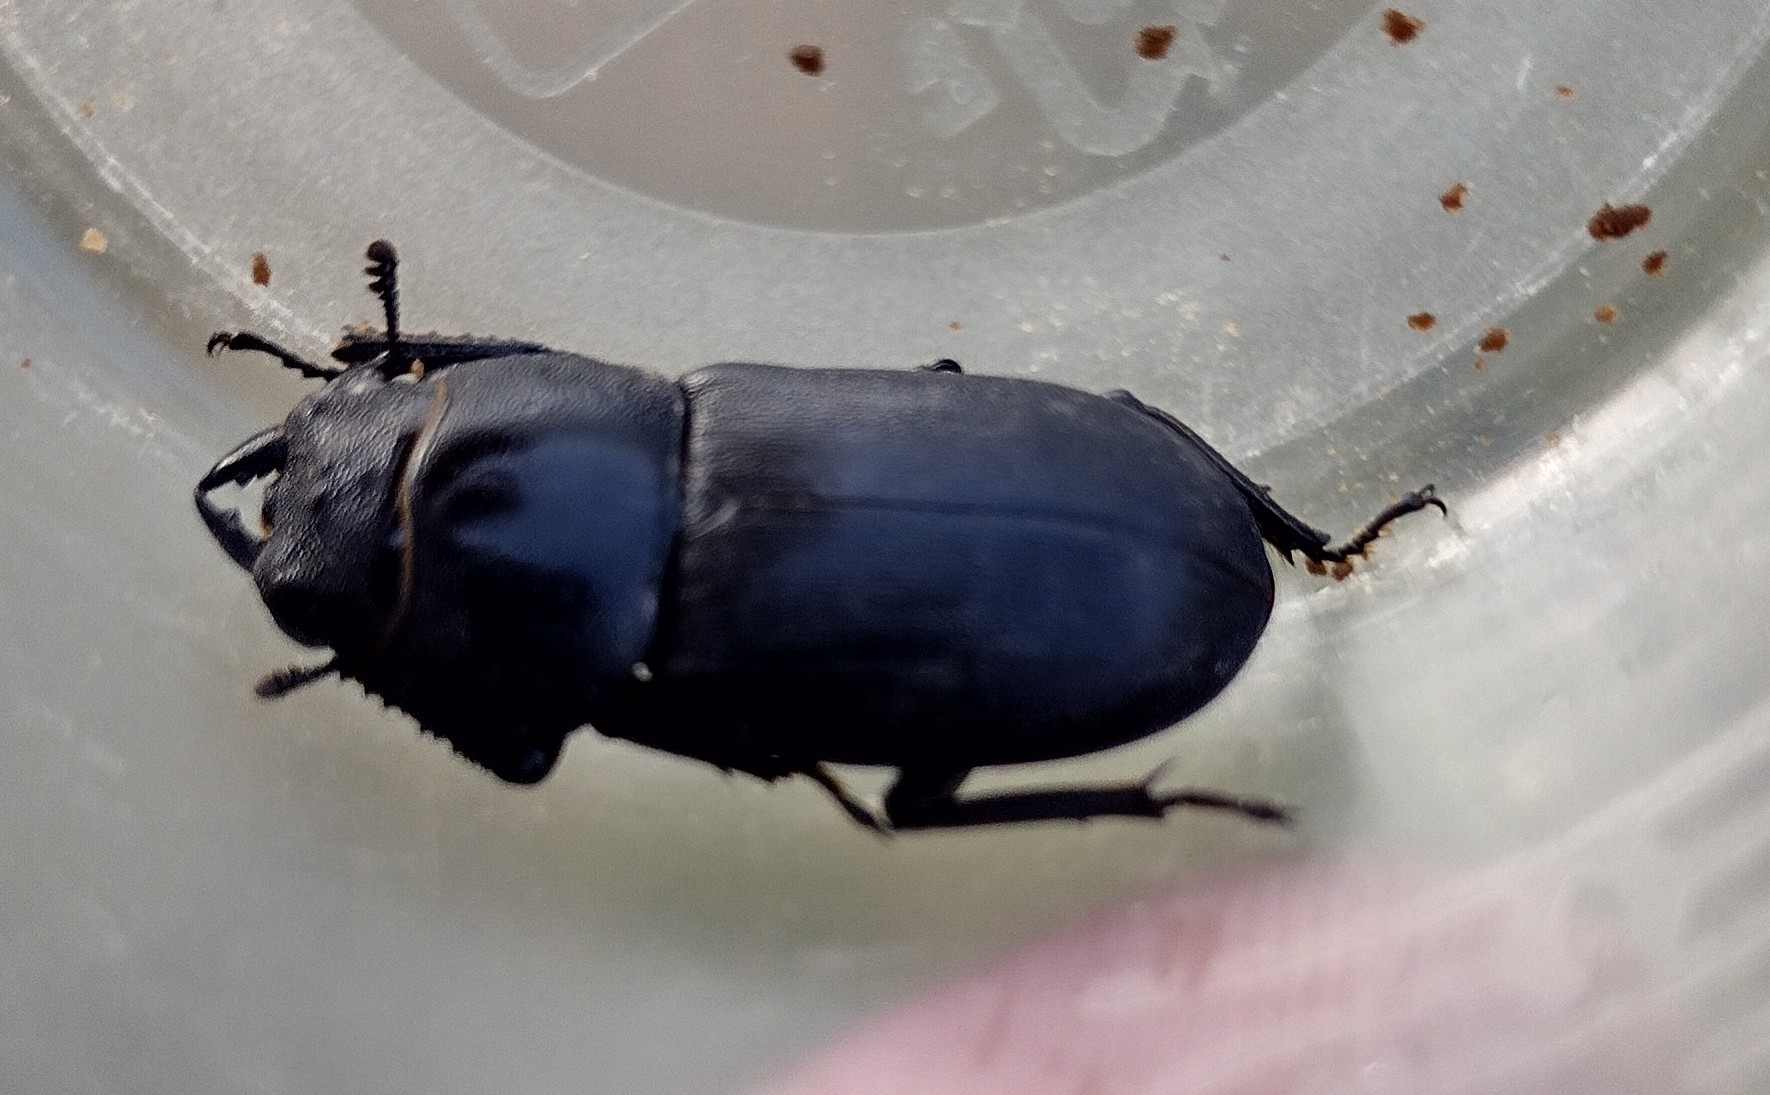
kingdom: Animalia
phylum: Arthropoda
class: Insecta
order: Coleoptera
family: Lucanidae
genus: Dorcus
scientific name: Dorcus parallelipipedus
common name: Lesser stag beetle
